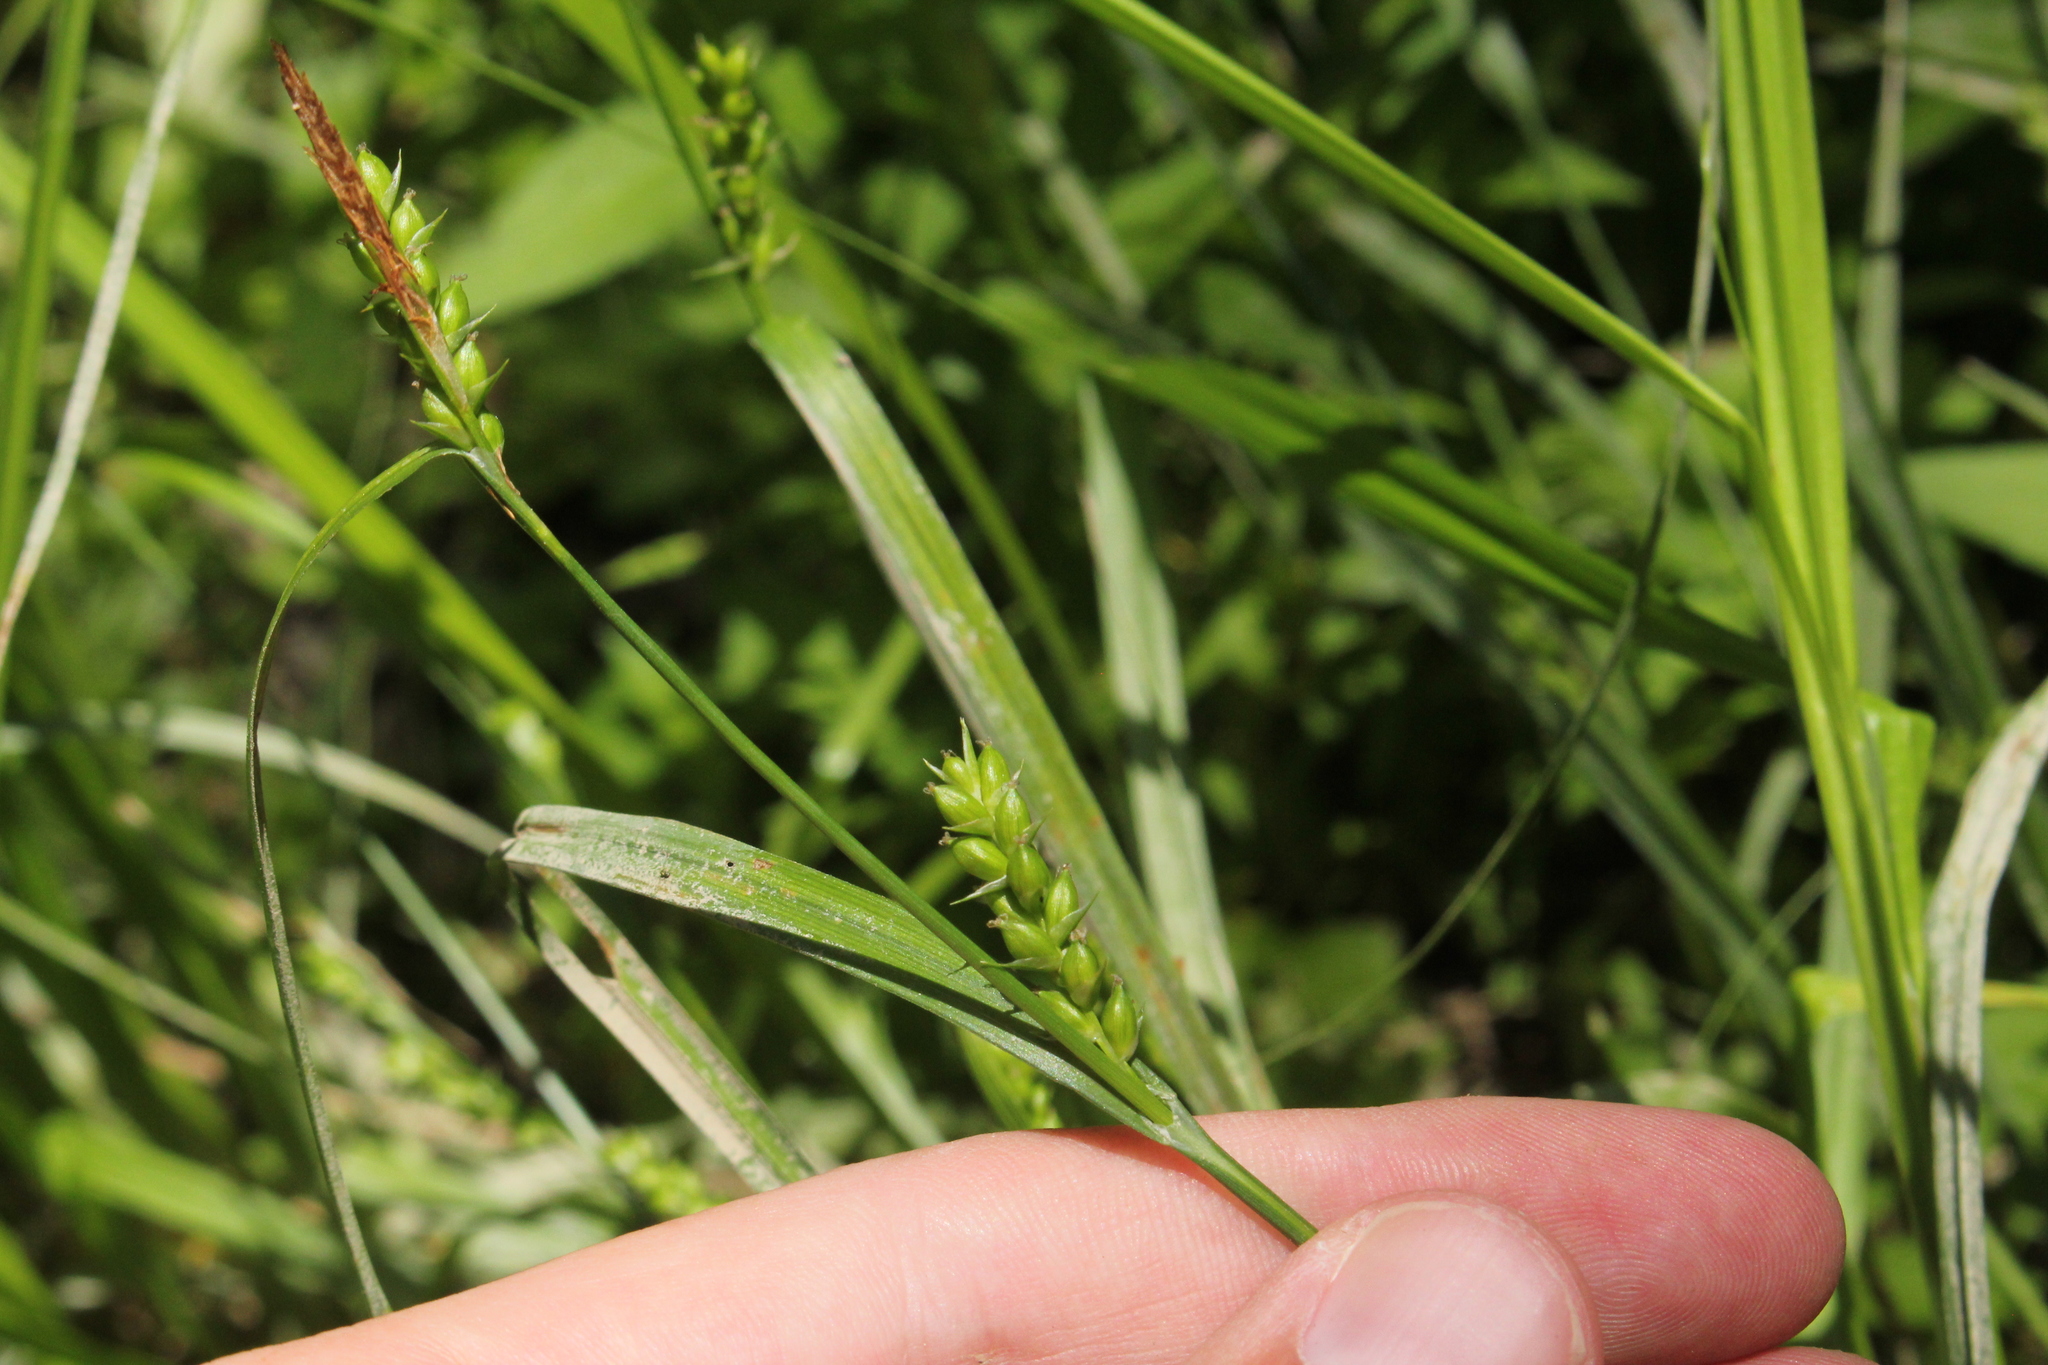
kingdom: Plantae
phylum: Tracheophyta
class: Liliopsida
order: Poales
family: Cyperaceae
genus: Carex
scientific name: Carex grisea
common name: Eastern narrow-leaved sedge
